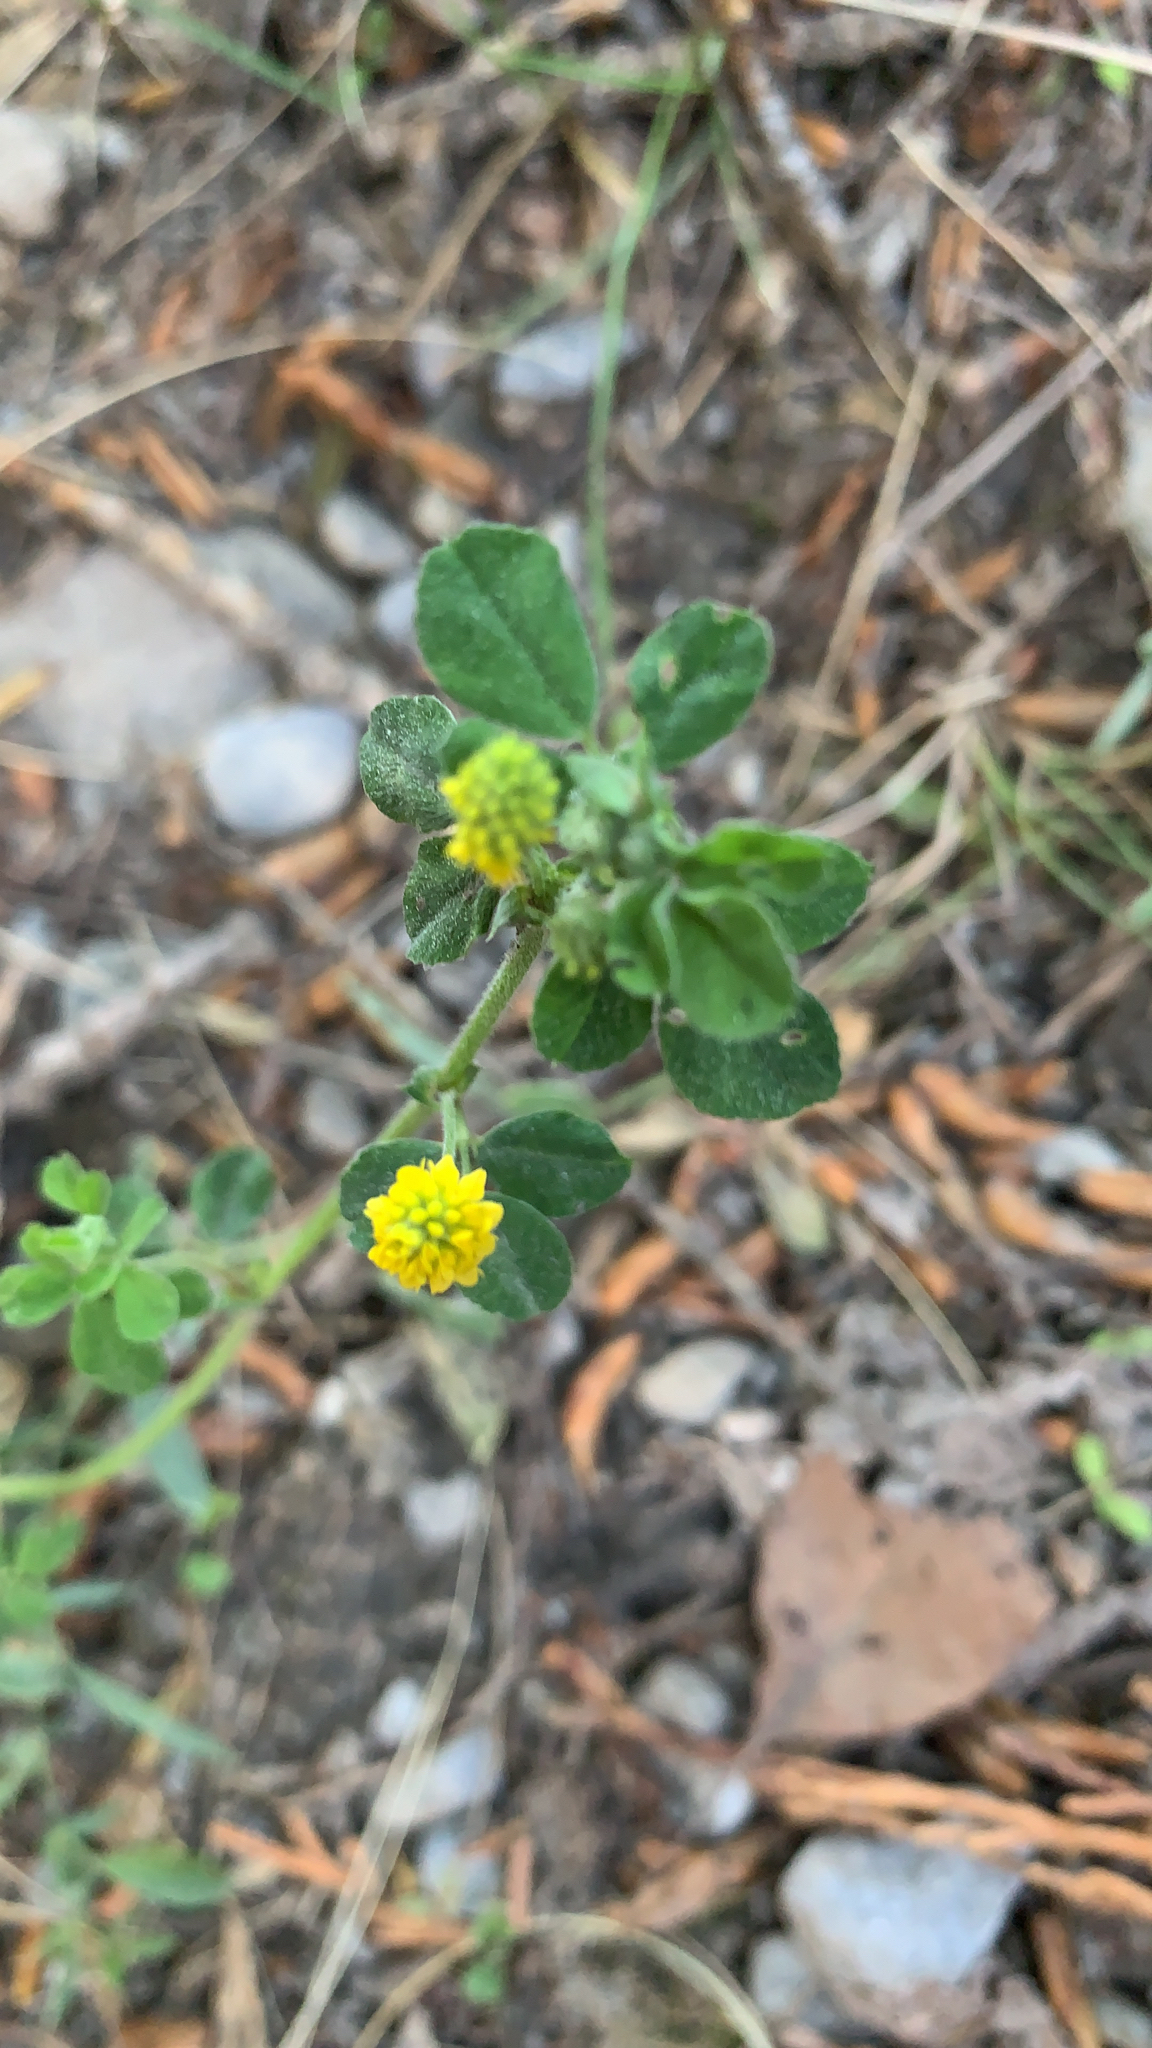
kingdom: Plantae
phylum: Tracheophyta
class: Magnoliopsida
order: Fabales
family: Fabaceae
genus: Medicago
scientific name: Medicago lupulina
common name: Black medick
